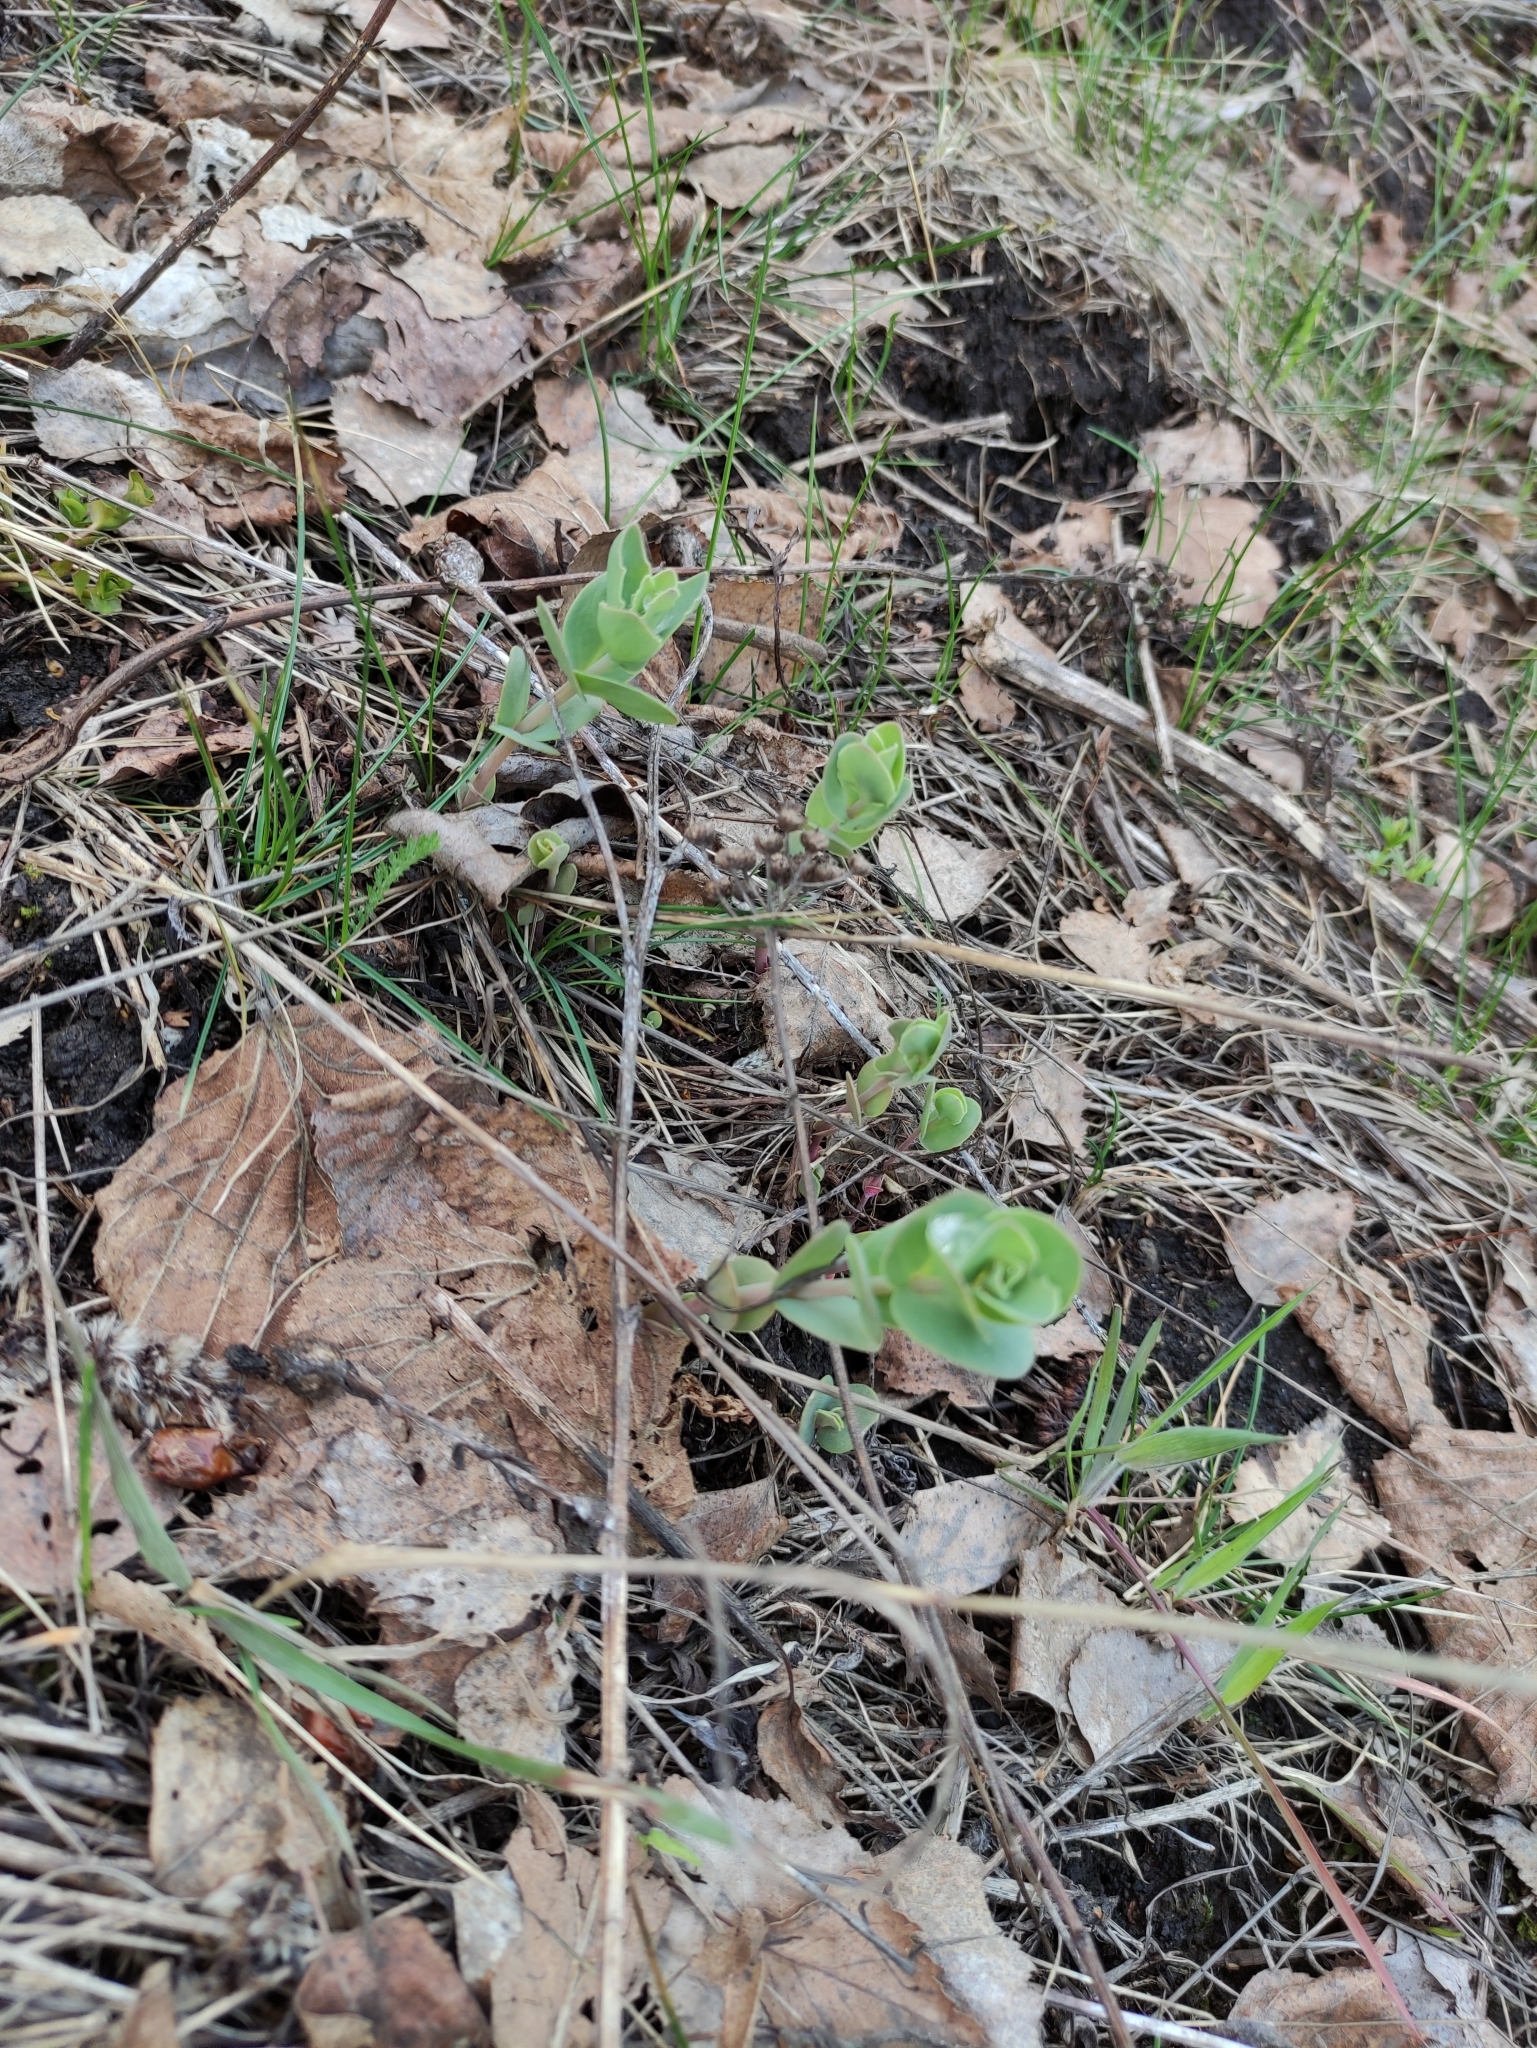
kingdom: Plantae
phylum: Tracheophyta
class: Magnoliopsida
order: Saxifragales
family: Crassulaceae
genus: Hylotelephium
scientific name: Hylotelephium telephium
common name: Live-forever
